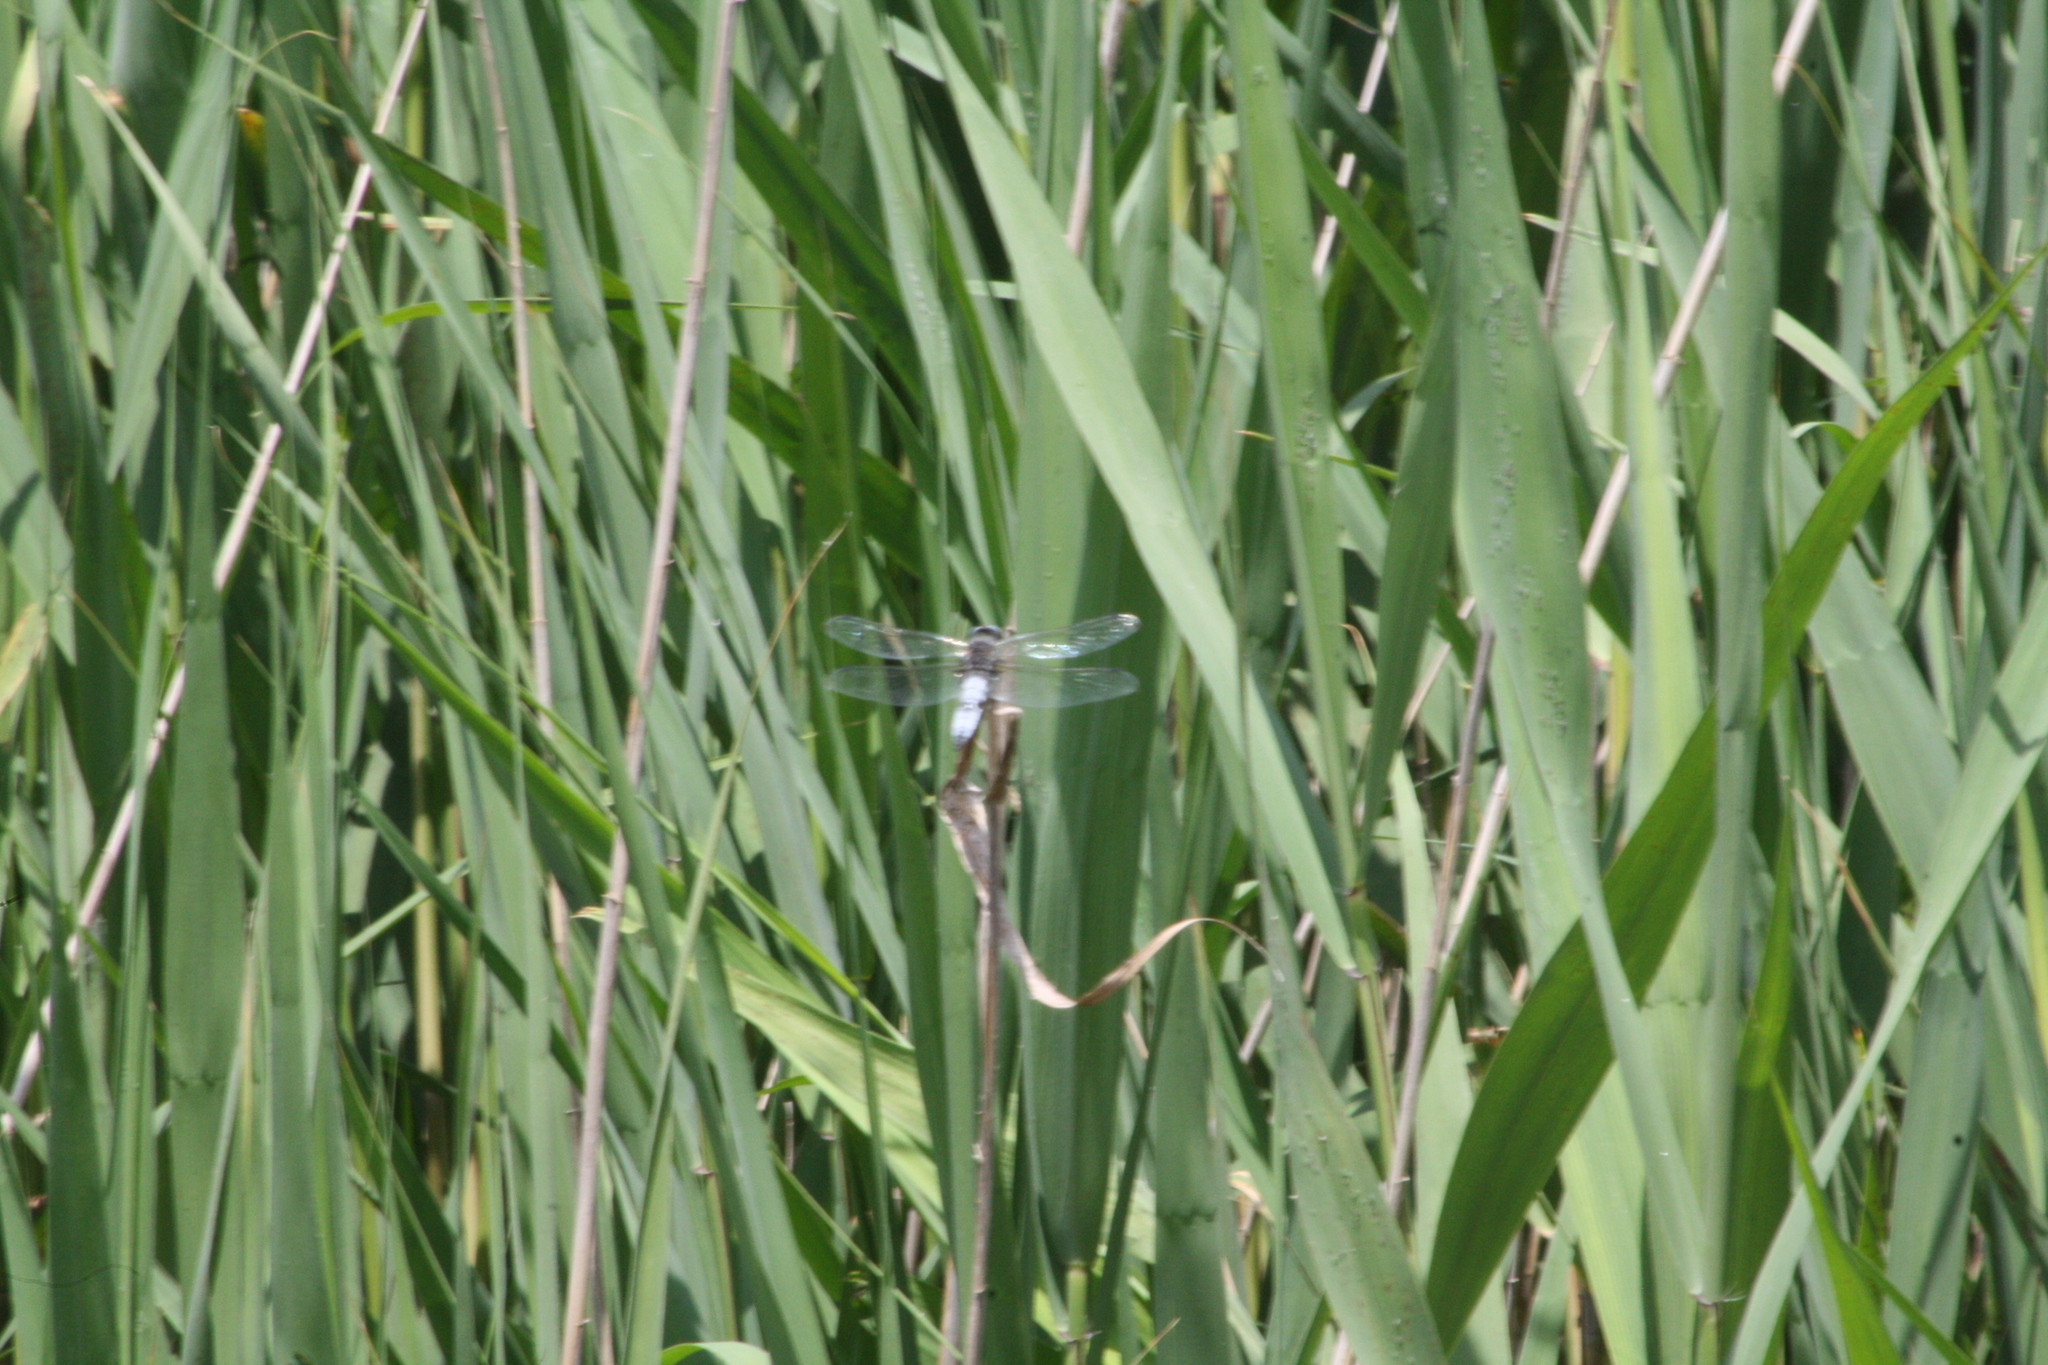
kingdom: Animalia
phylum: Arthropoda
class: Insecta
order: Odonata
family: Libellulidae
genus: Libellula
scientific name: Libellula fulva
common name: Blue chaser
